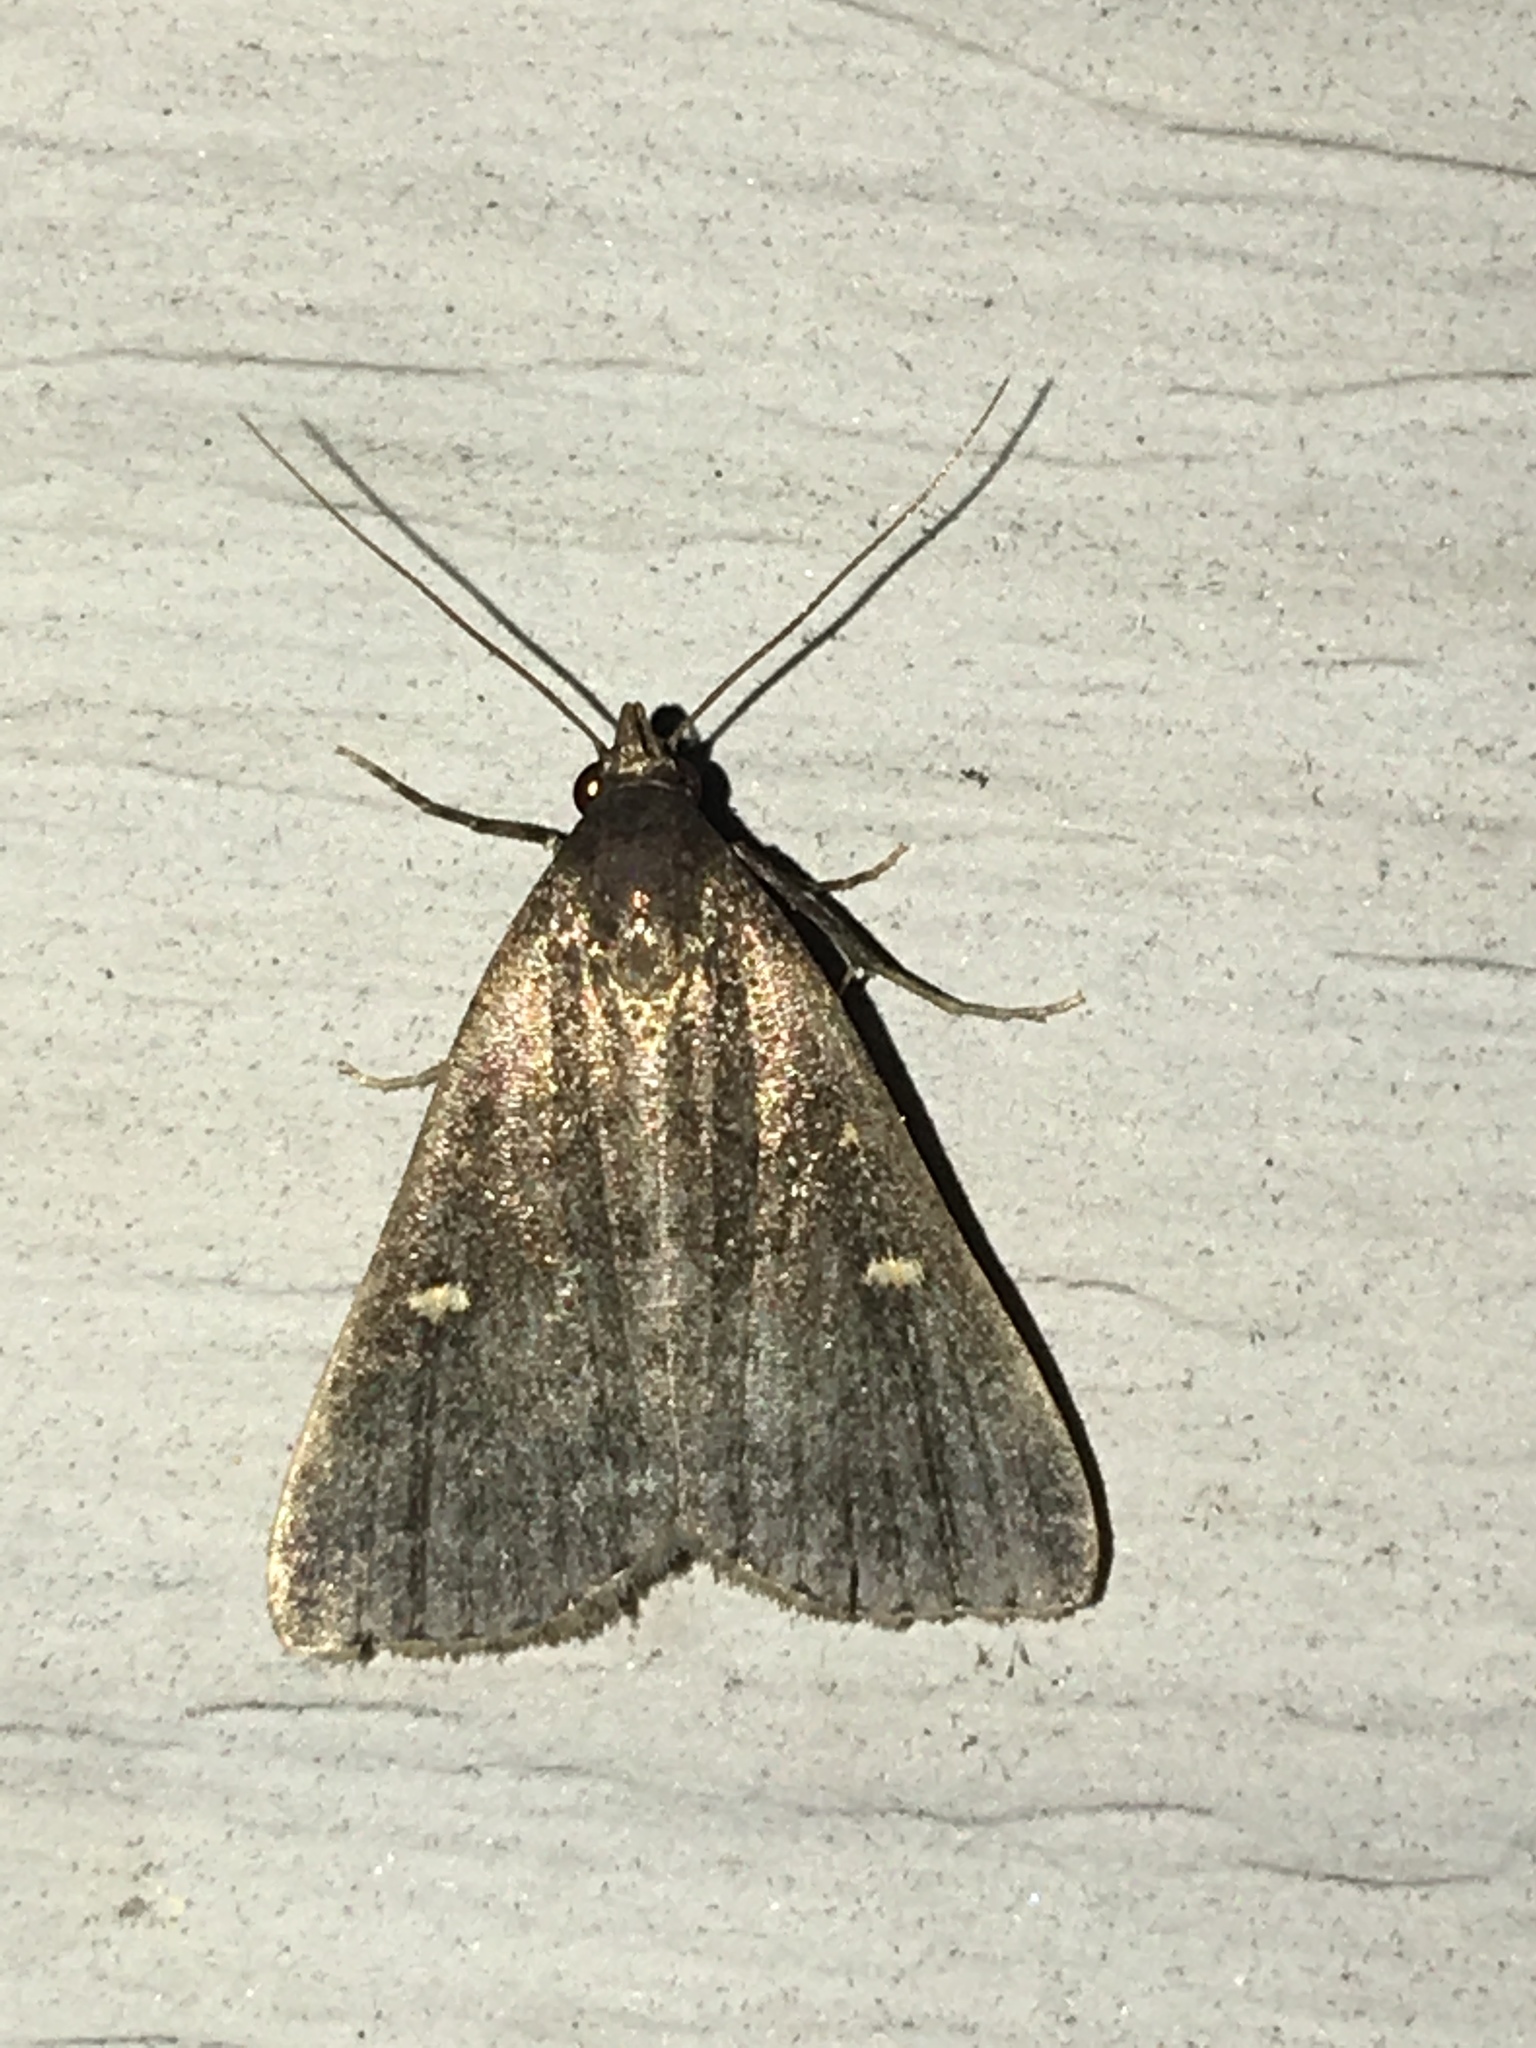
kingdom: Animalia
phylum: Arthropoda
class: Insecta
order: Lepidoptera
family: Erebidae
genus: Tetanolita
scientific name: Tetanolita mynesalis
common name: Smoky tetanolita moth
